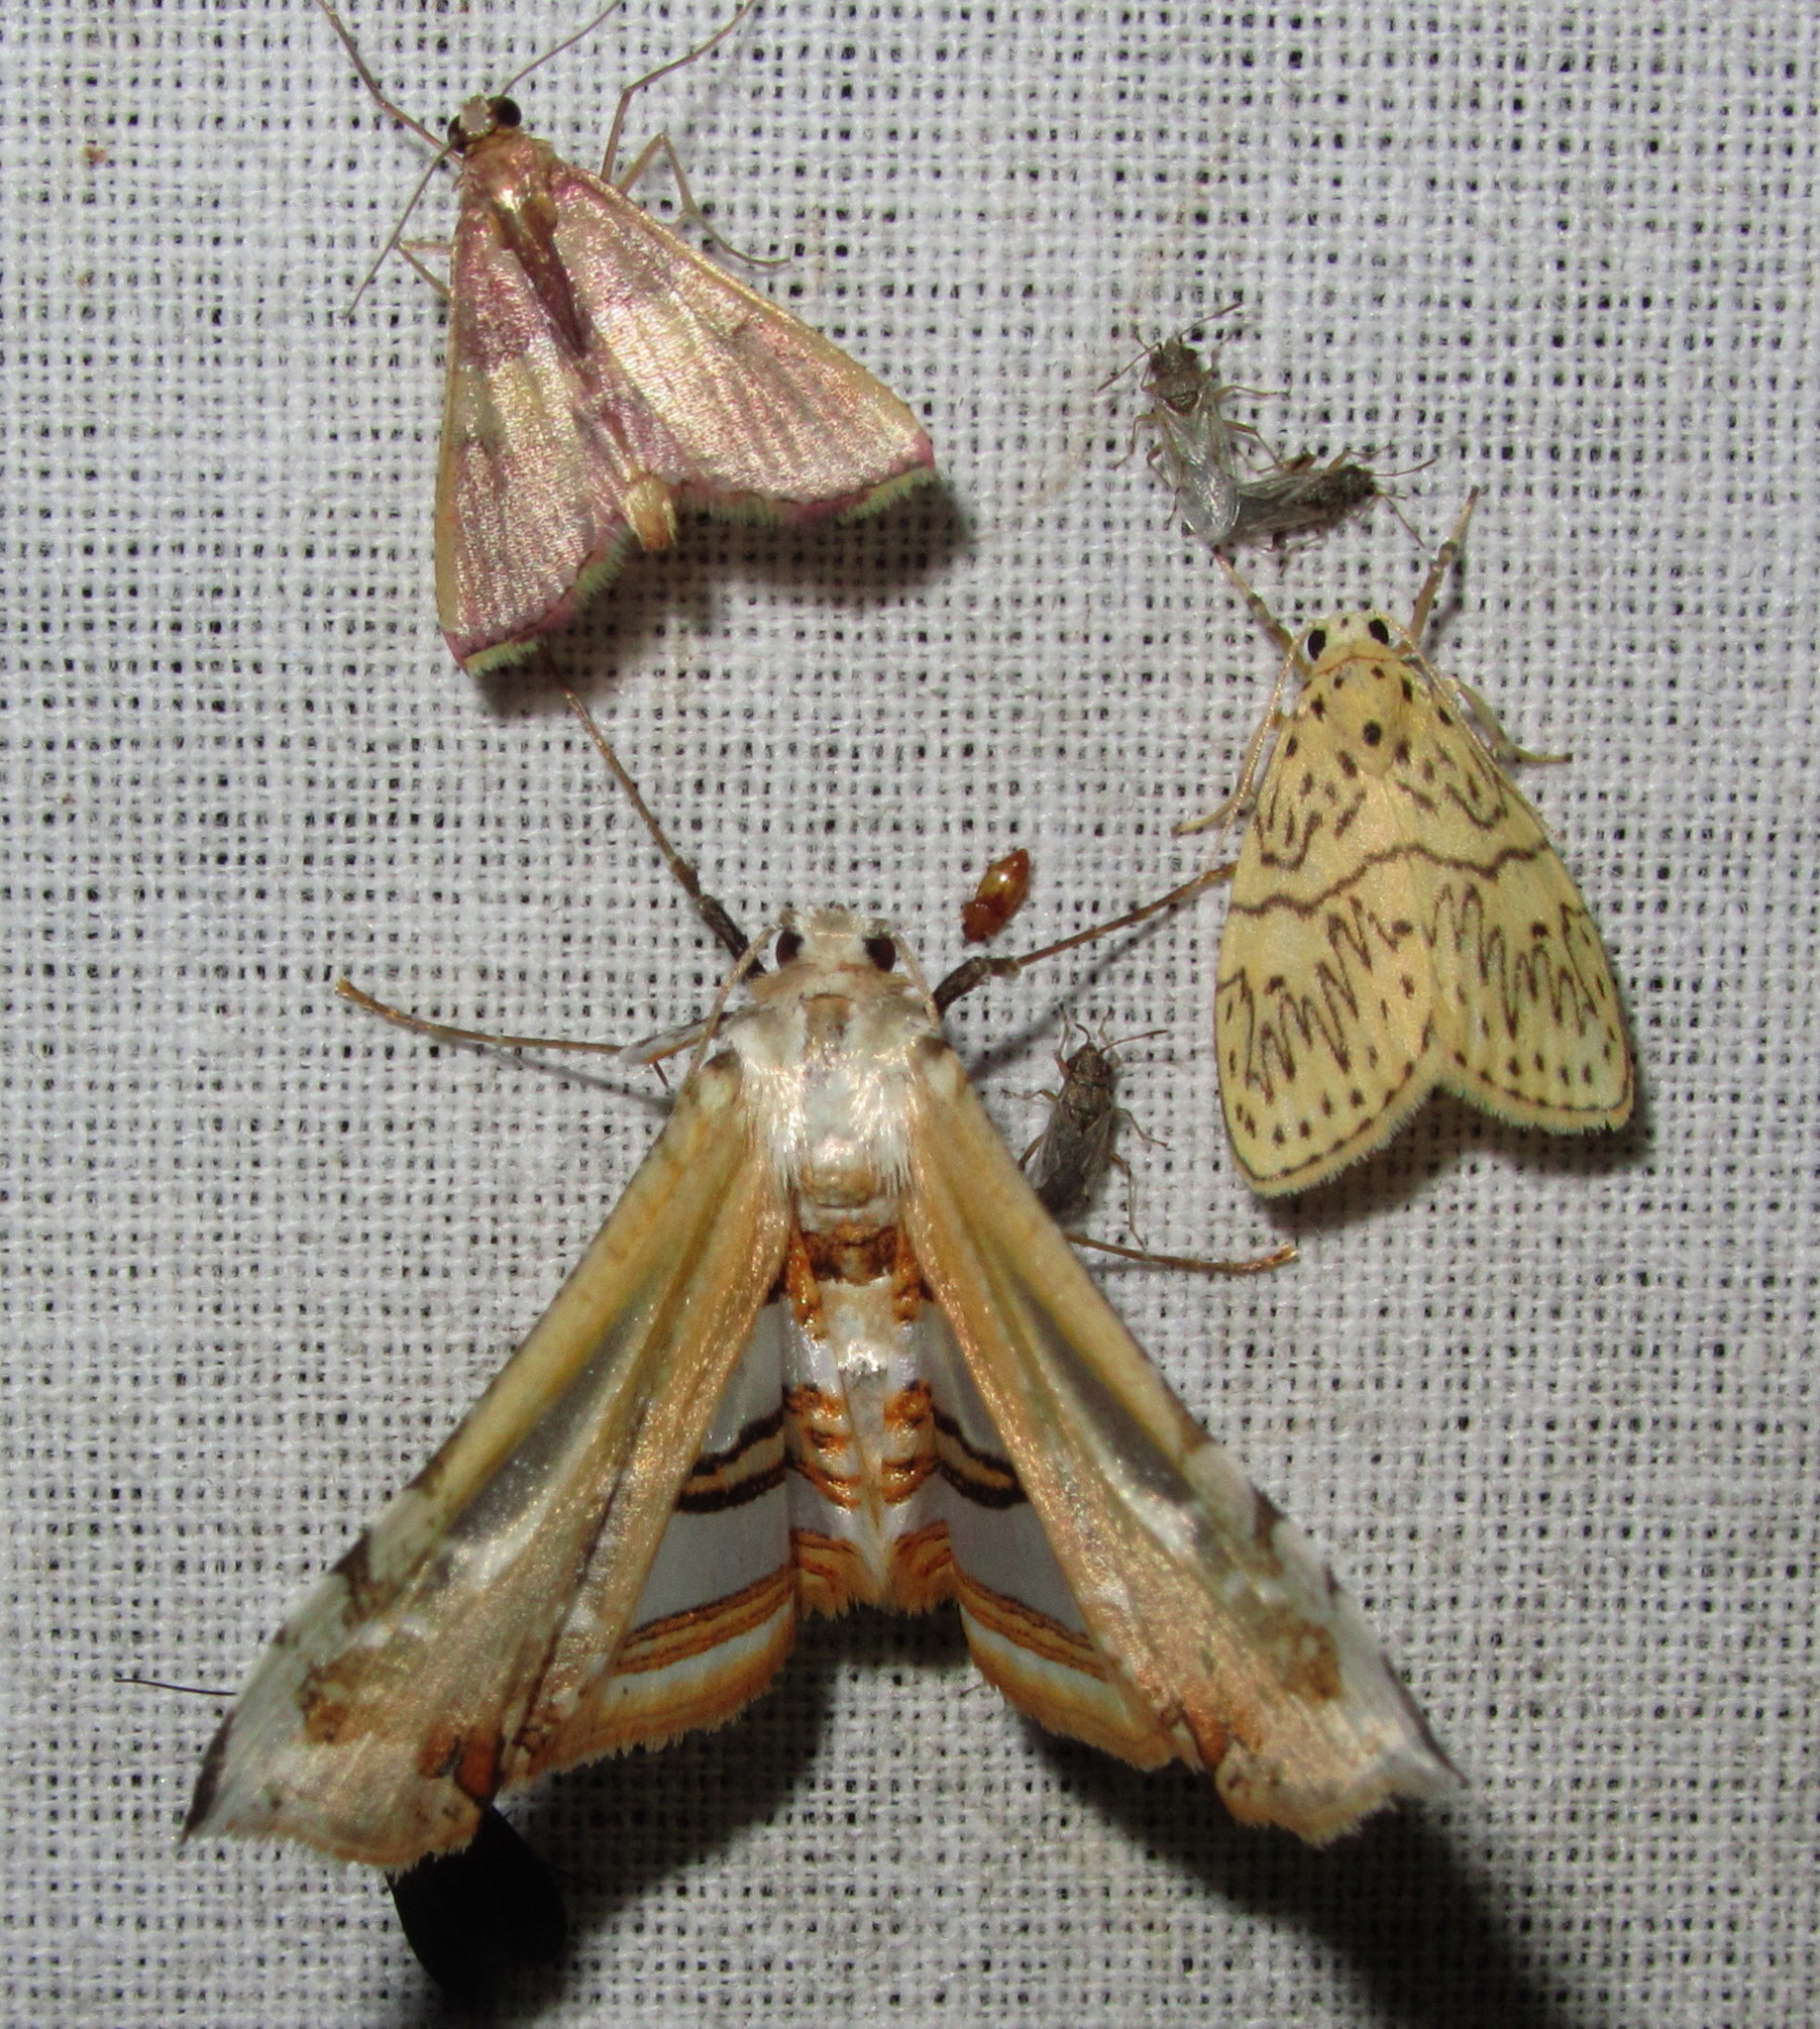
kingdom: Animalia
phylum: Arthropoda
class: Insecta
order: Lepidoptera
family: Thyrididae
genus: Herdonia
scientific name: Herdonia osacesalis
